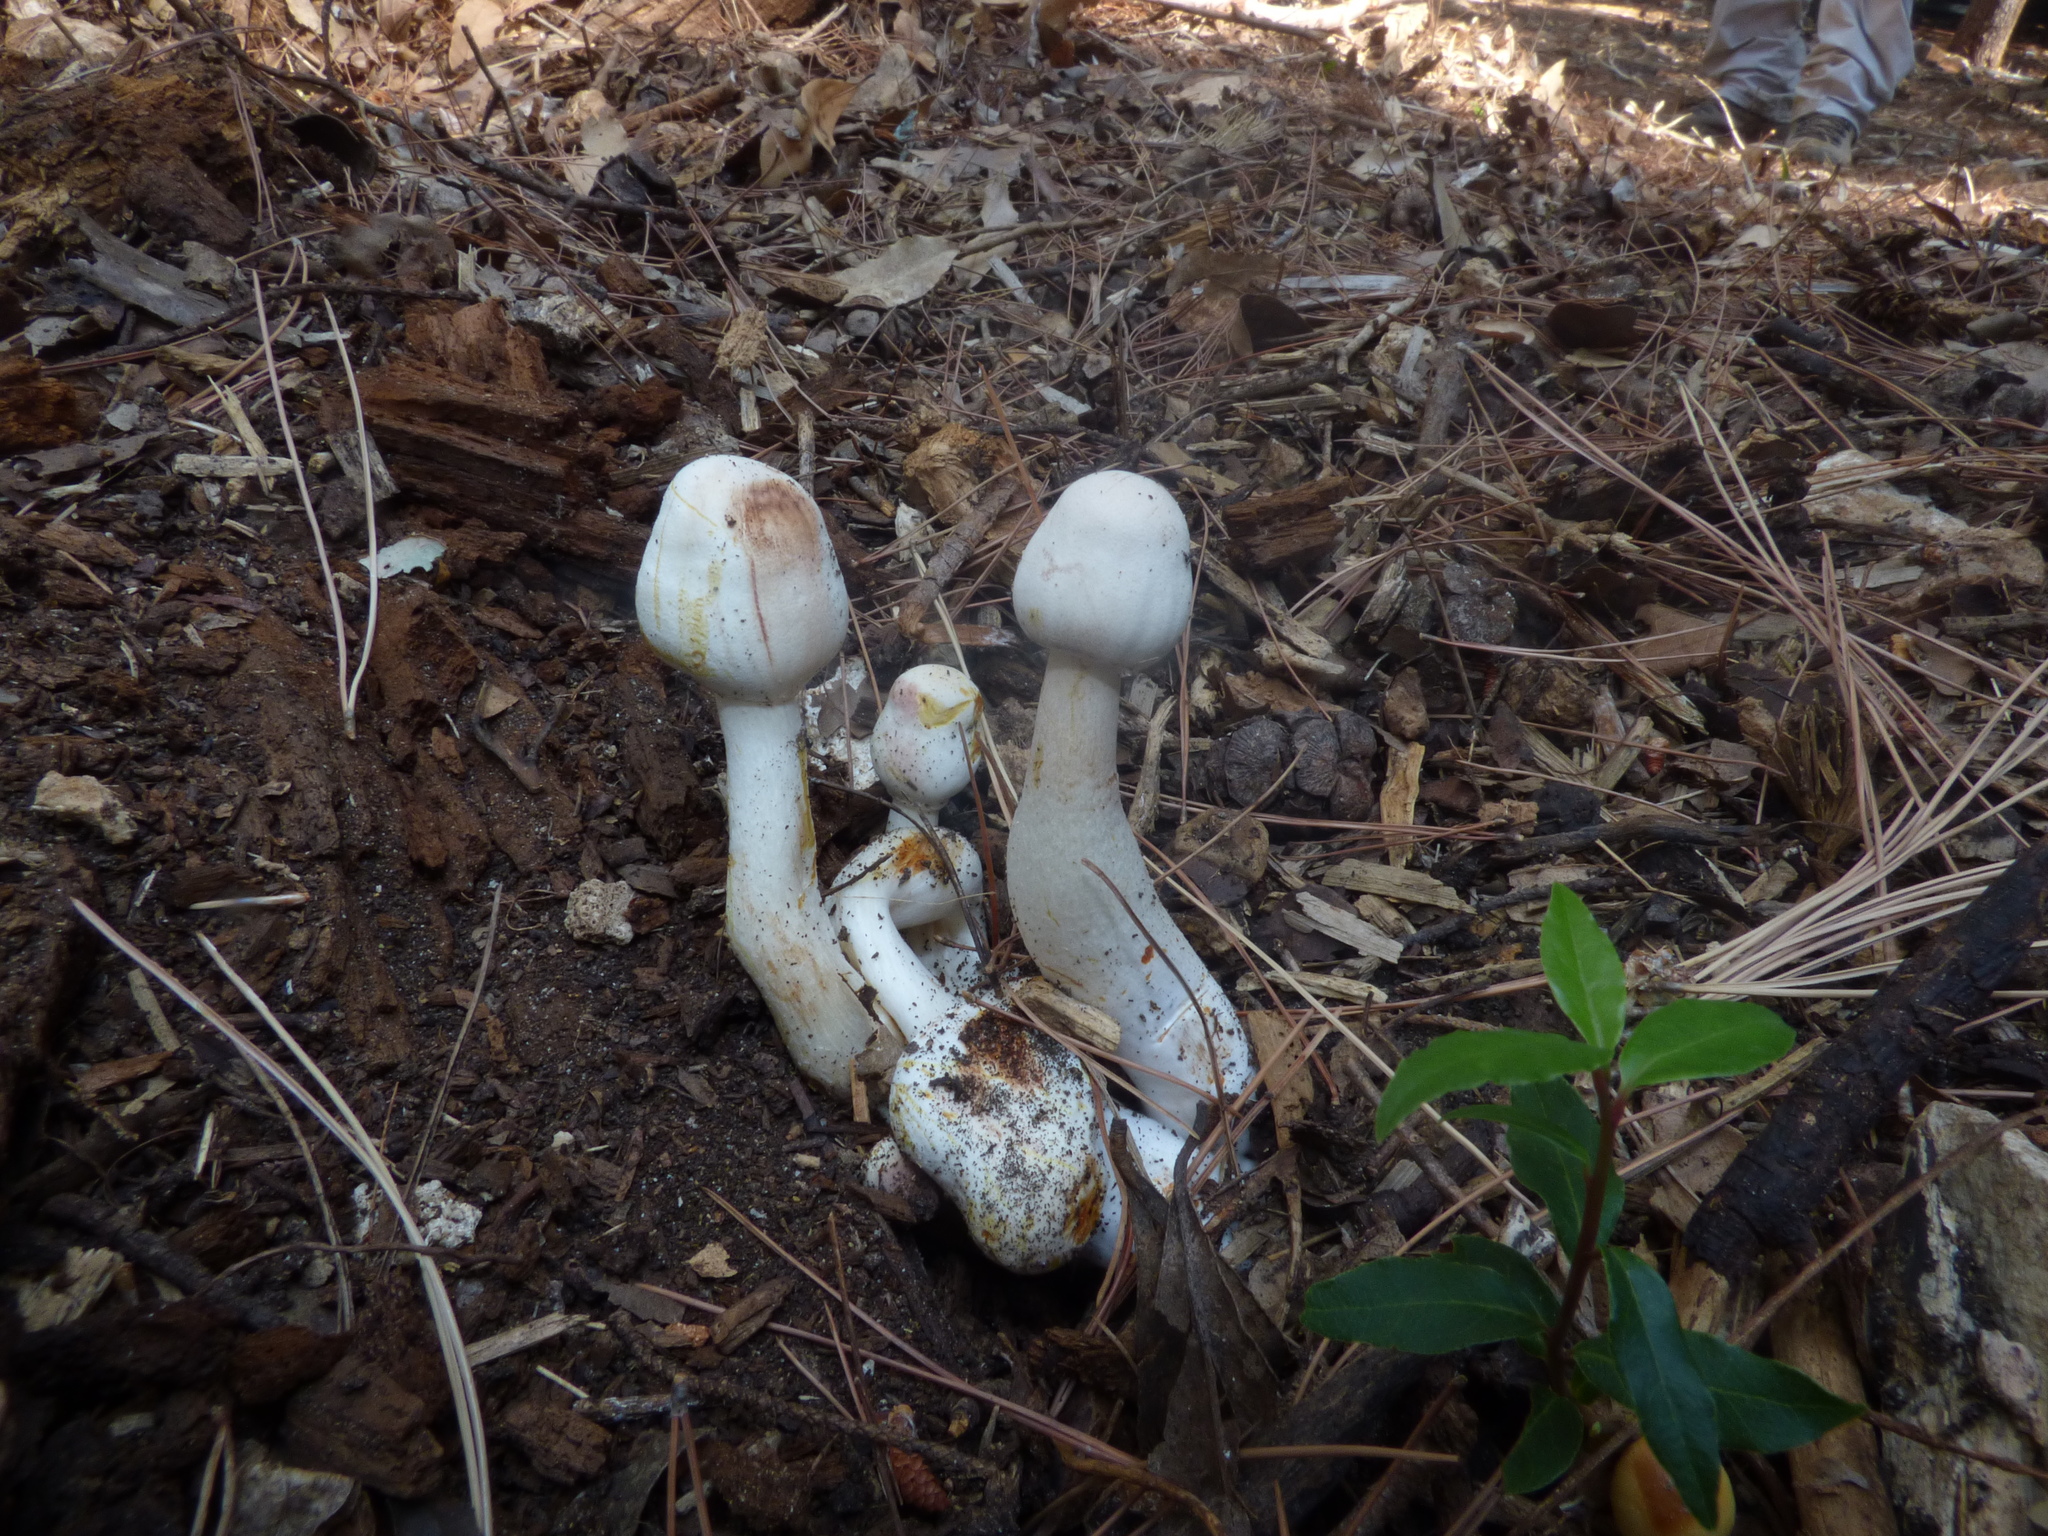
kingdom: Fungi
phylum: Basidiomycota
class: Agaricomycetes
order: Agaricales
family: Agaricaceae
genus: Leucoagaricus
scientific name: Leucoagaricus americanus
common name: Reddening lepiota
